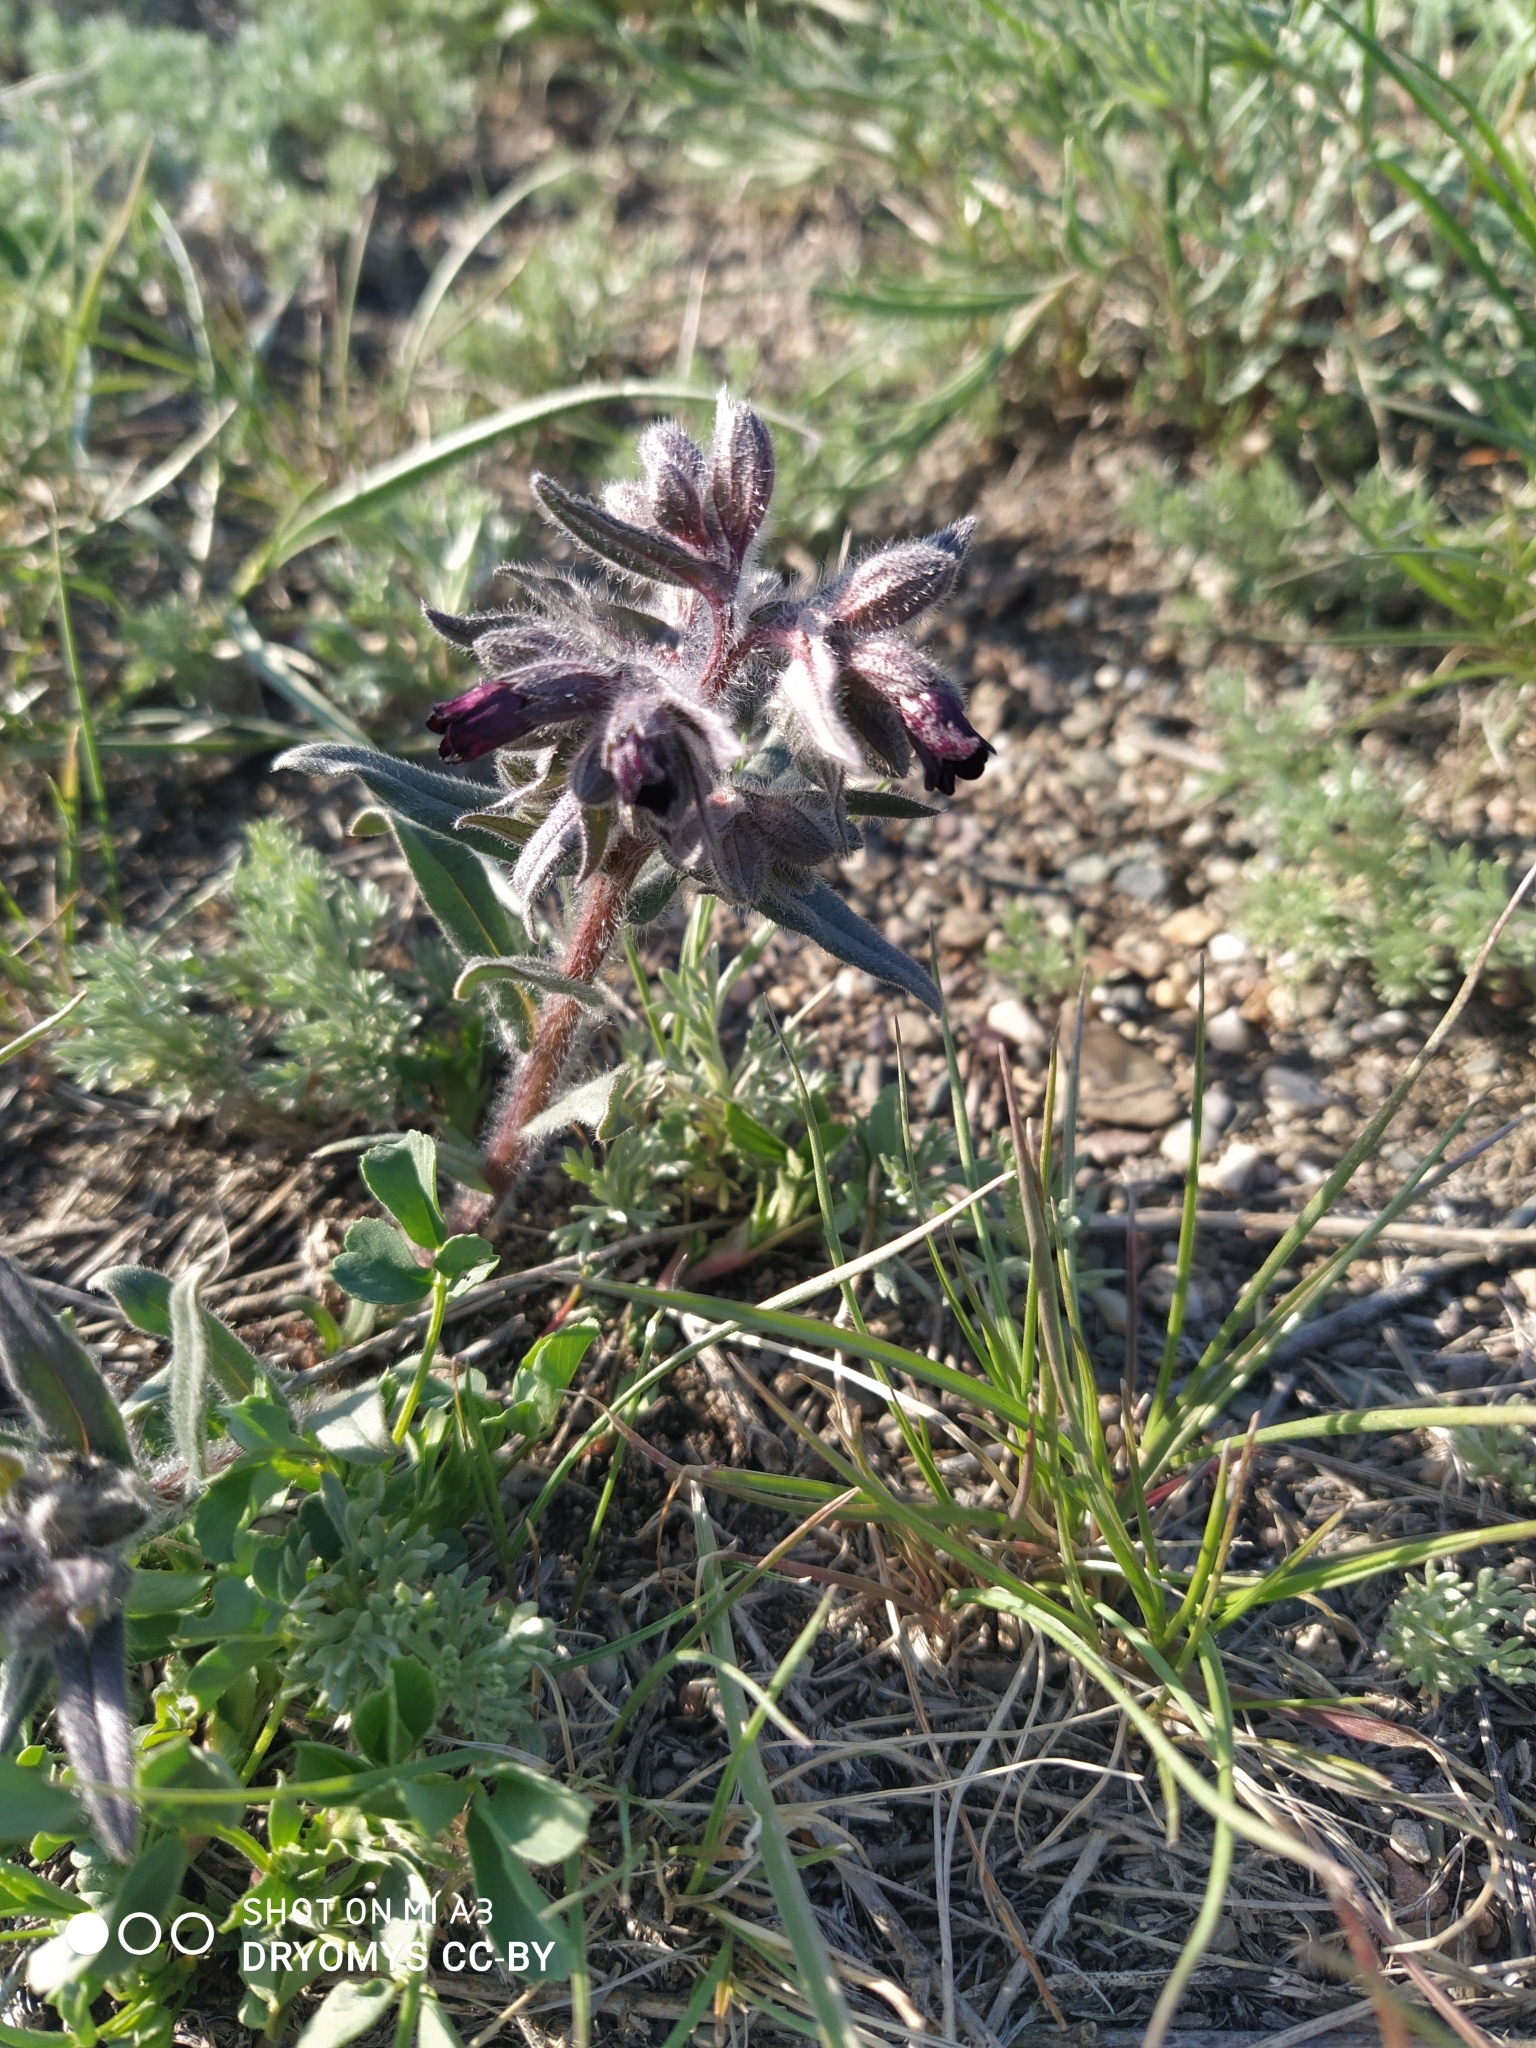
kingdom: Plantae
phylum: Tracheophyta
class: Magnoliopsida
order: Boraginales
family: Boraginaceae
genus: Nonea
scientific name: Nonea pulla
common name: Brown nonea
